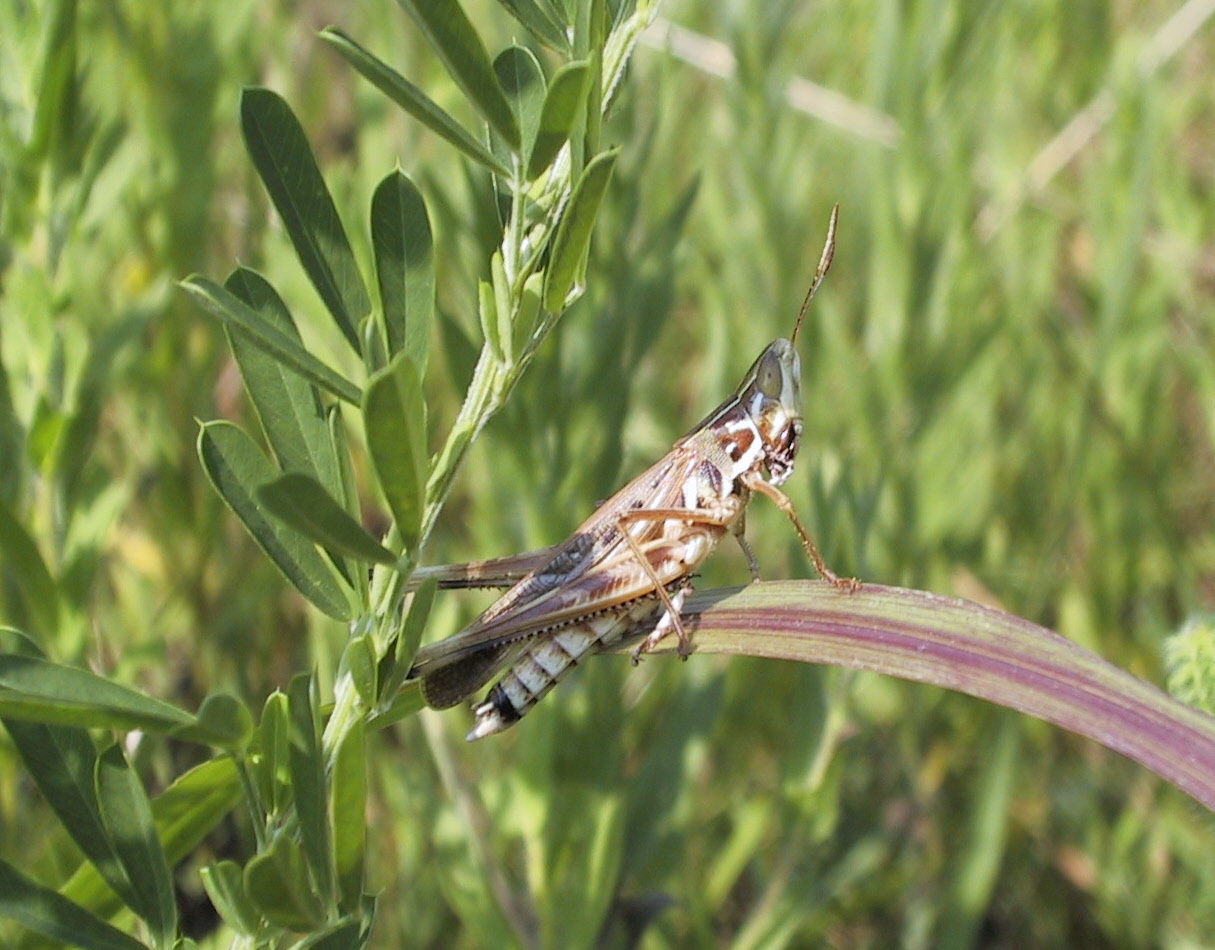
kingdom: Animalia
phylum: Arthropoda
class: Insecta
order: Orthoptera
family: Acrididae
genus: Syrbula
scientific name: Syrbula admirabilis
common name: Handsome grasshopper
